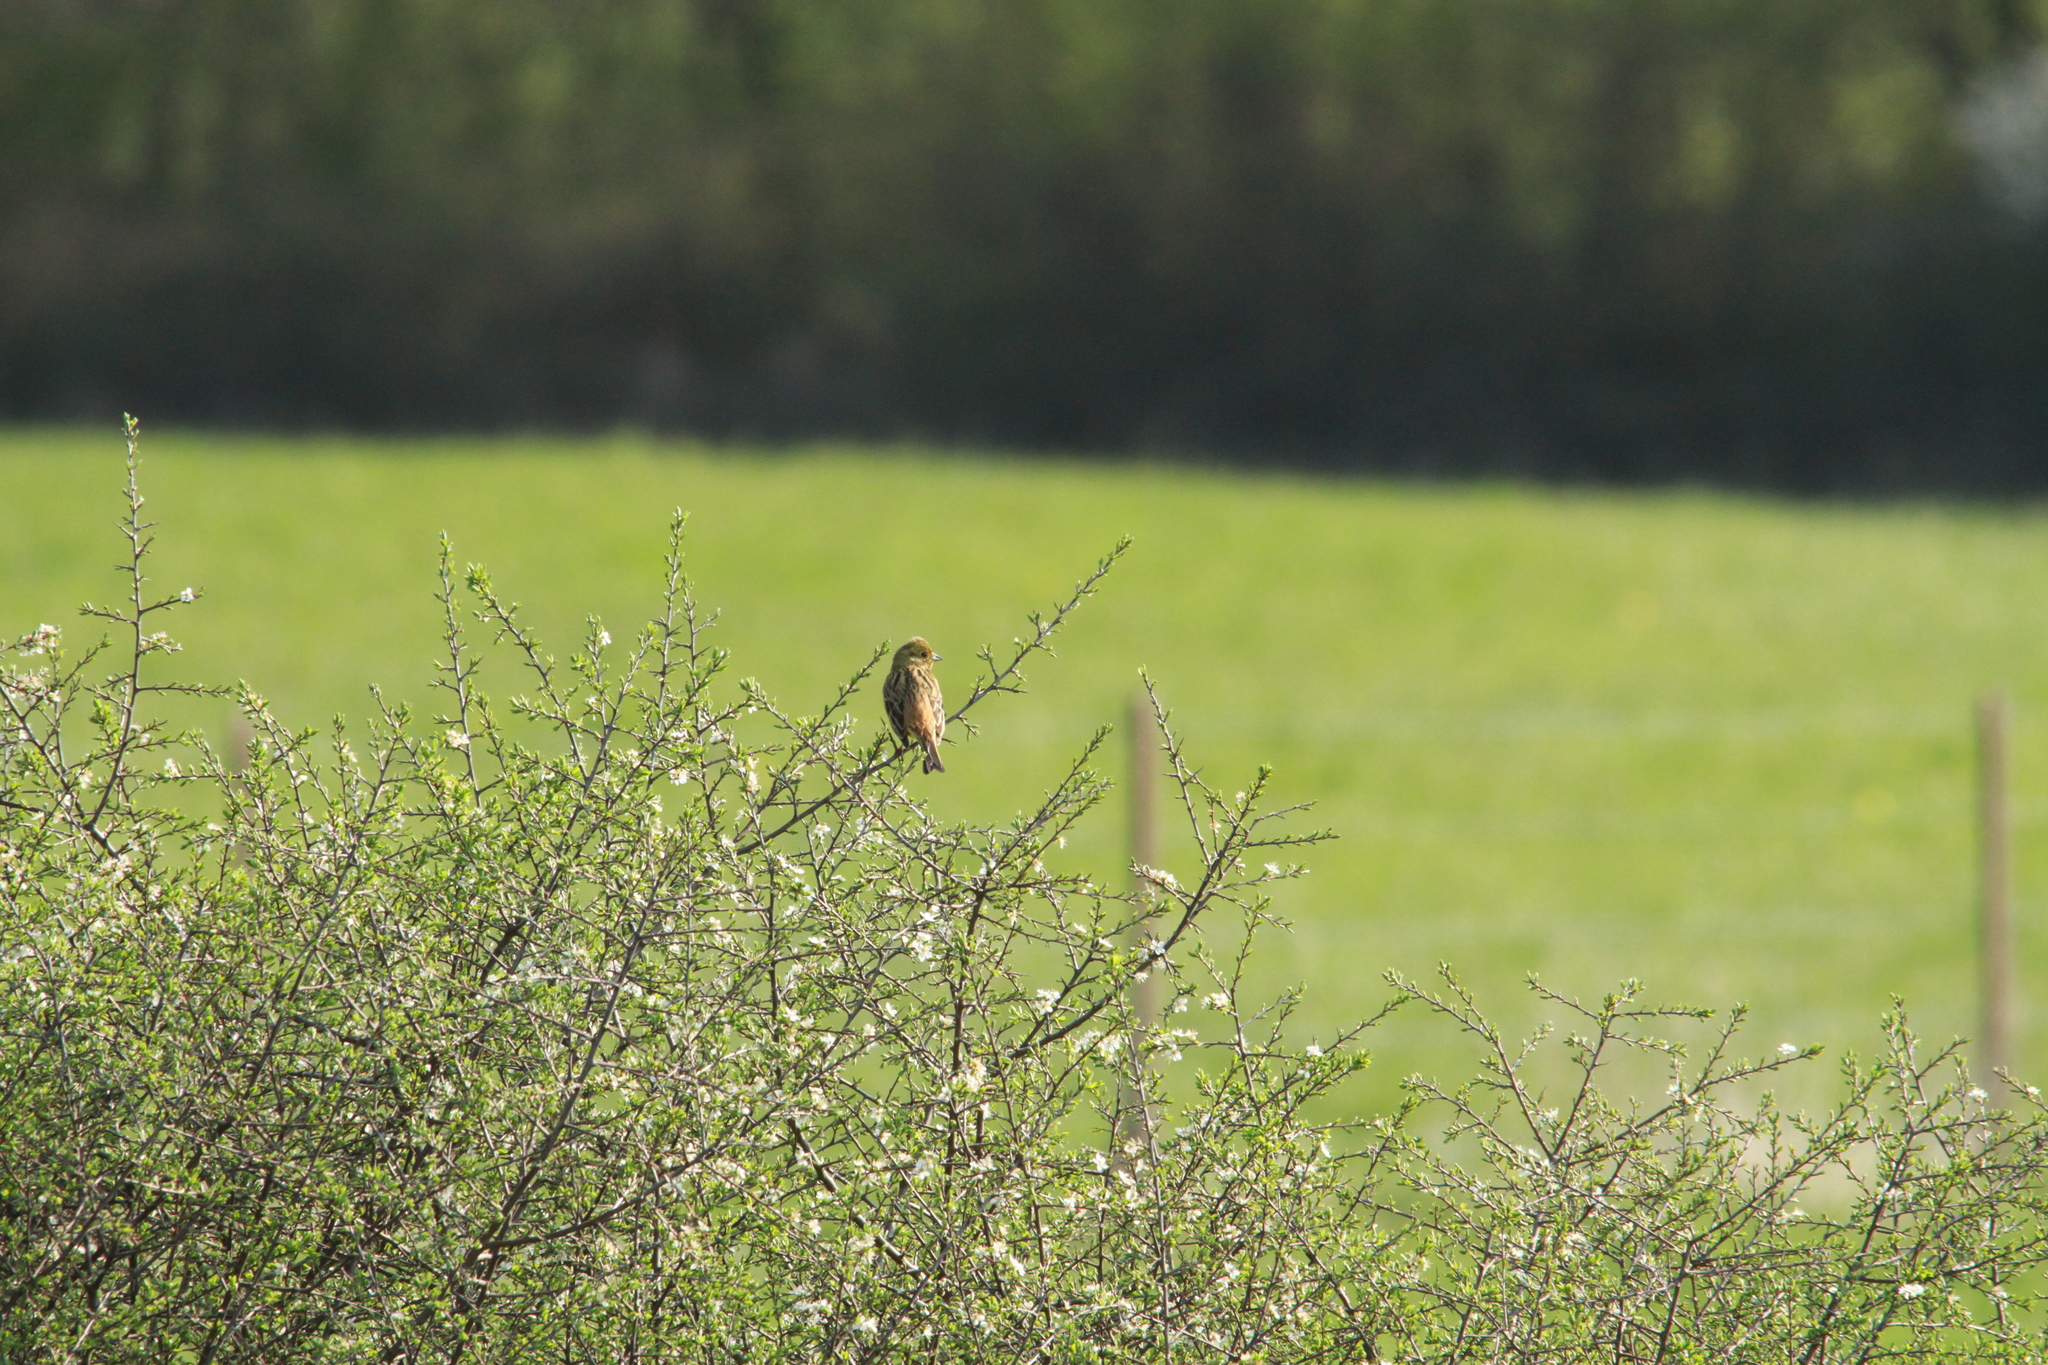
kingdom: Animalia
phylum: Chordata
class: Aves
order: Passeriformes
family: Emberizidae
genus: Emberiza
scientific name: Emberiza citrinella
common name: Yellowhammer
